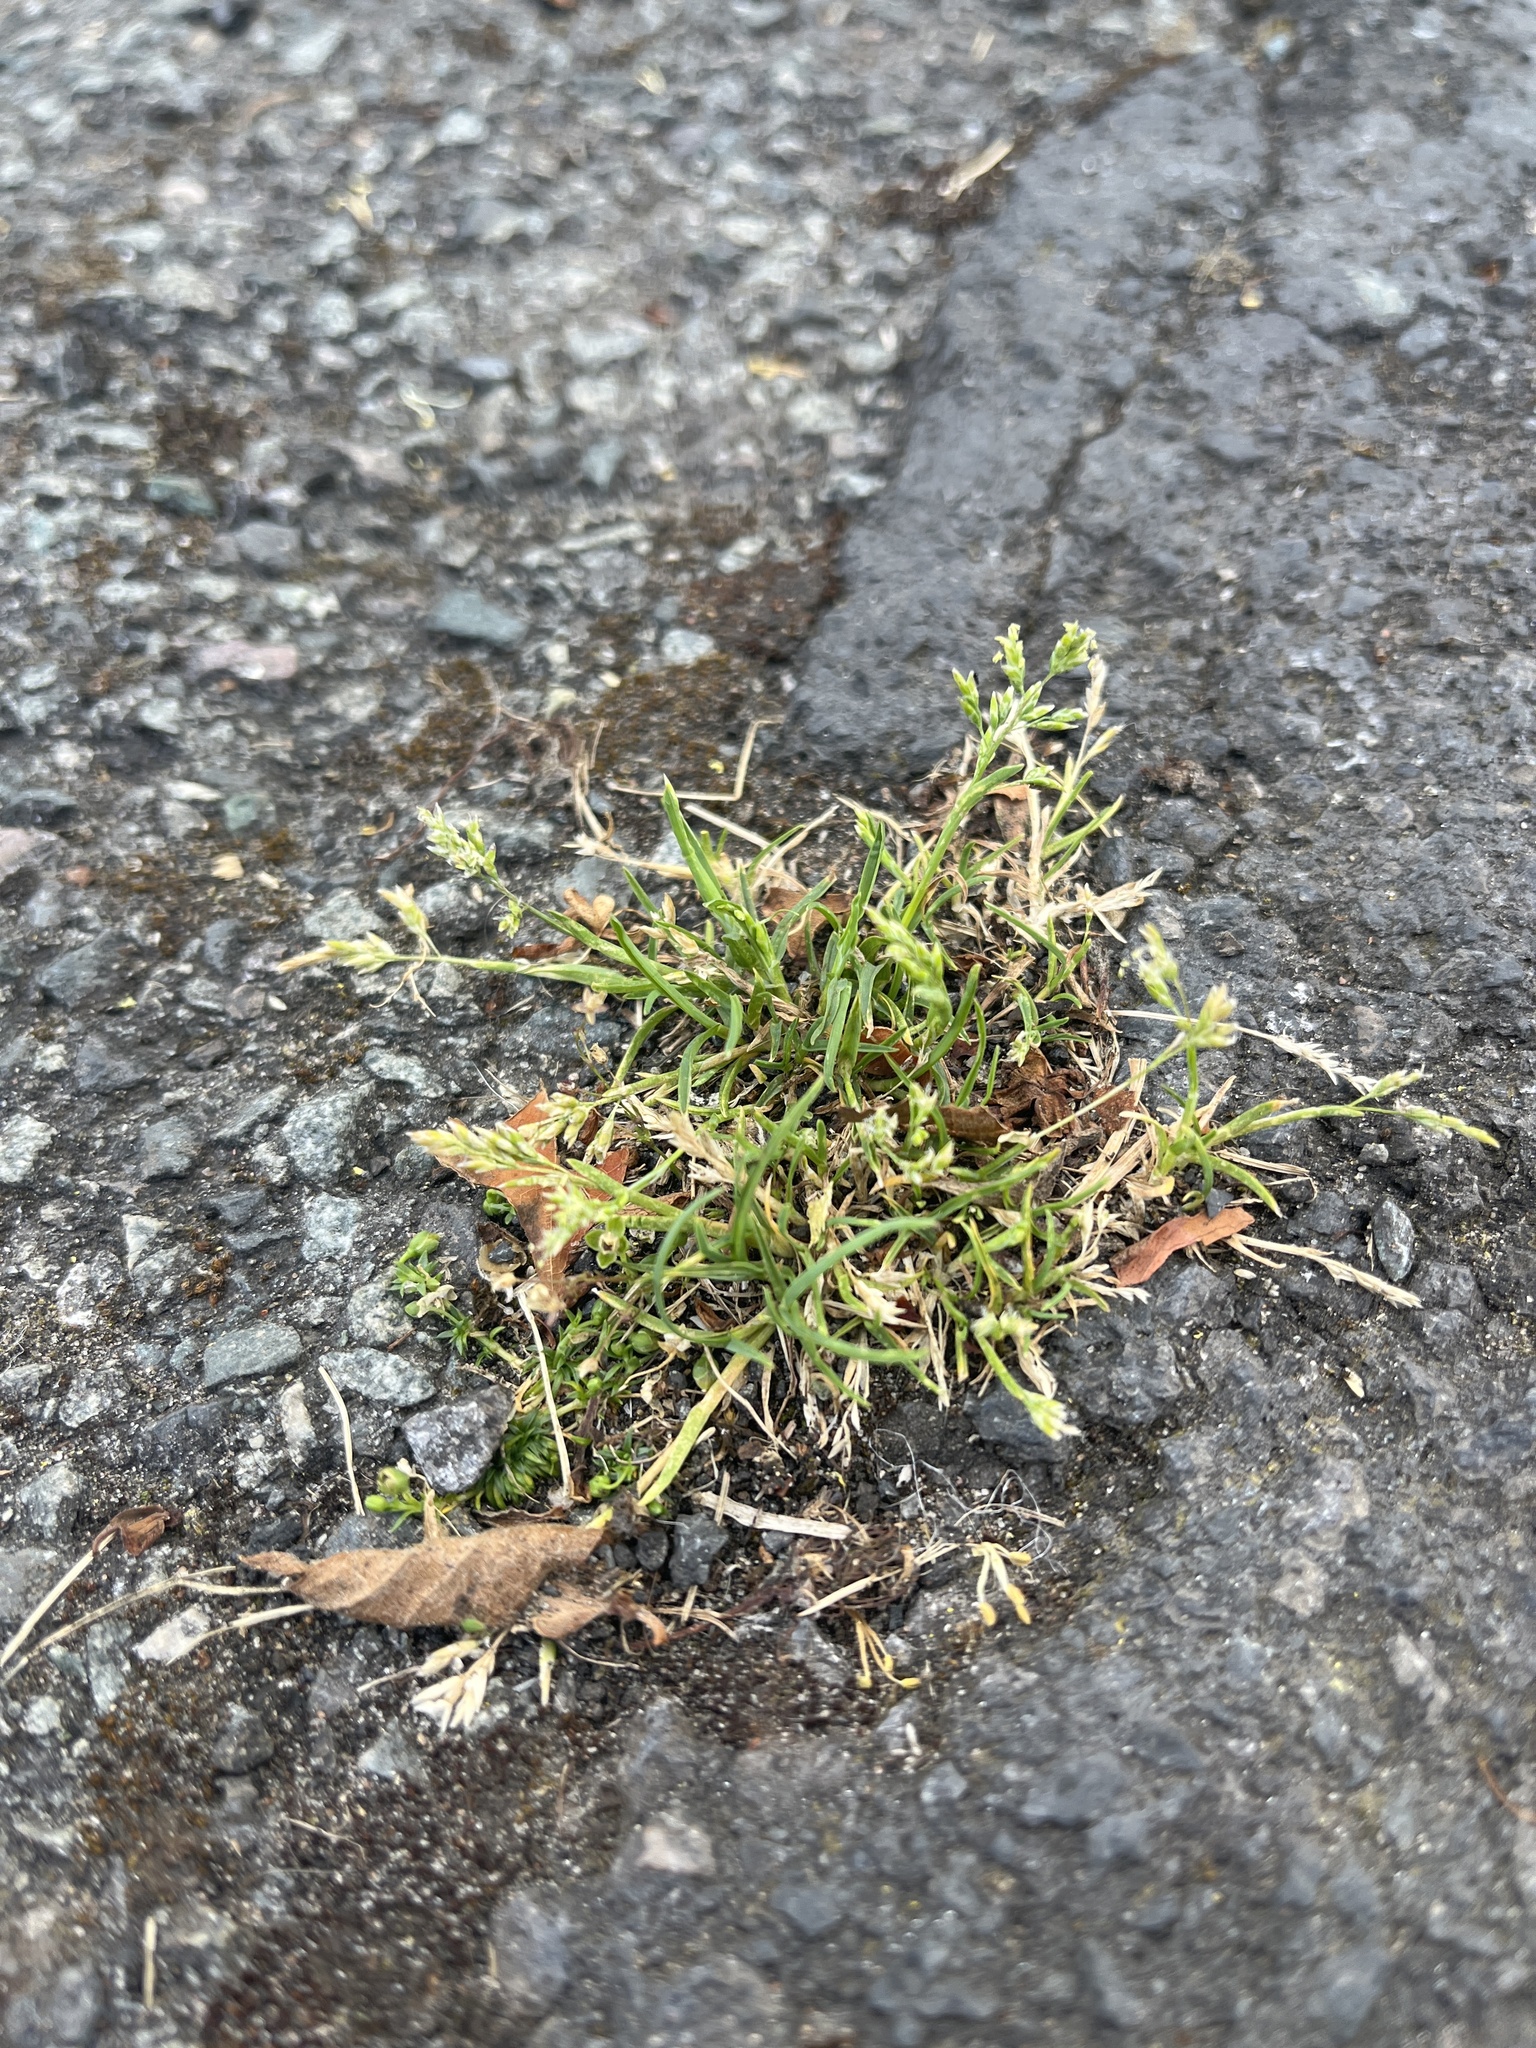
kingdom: Plantae
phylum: Tracheophyta
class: Liliopsida
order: Poales
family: Poaceae
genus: Poa
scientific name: Poa annua
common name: Annual bluegrass
